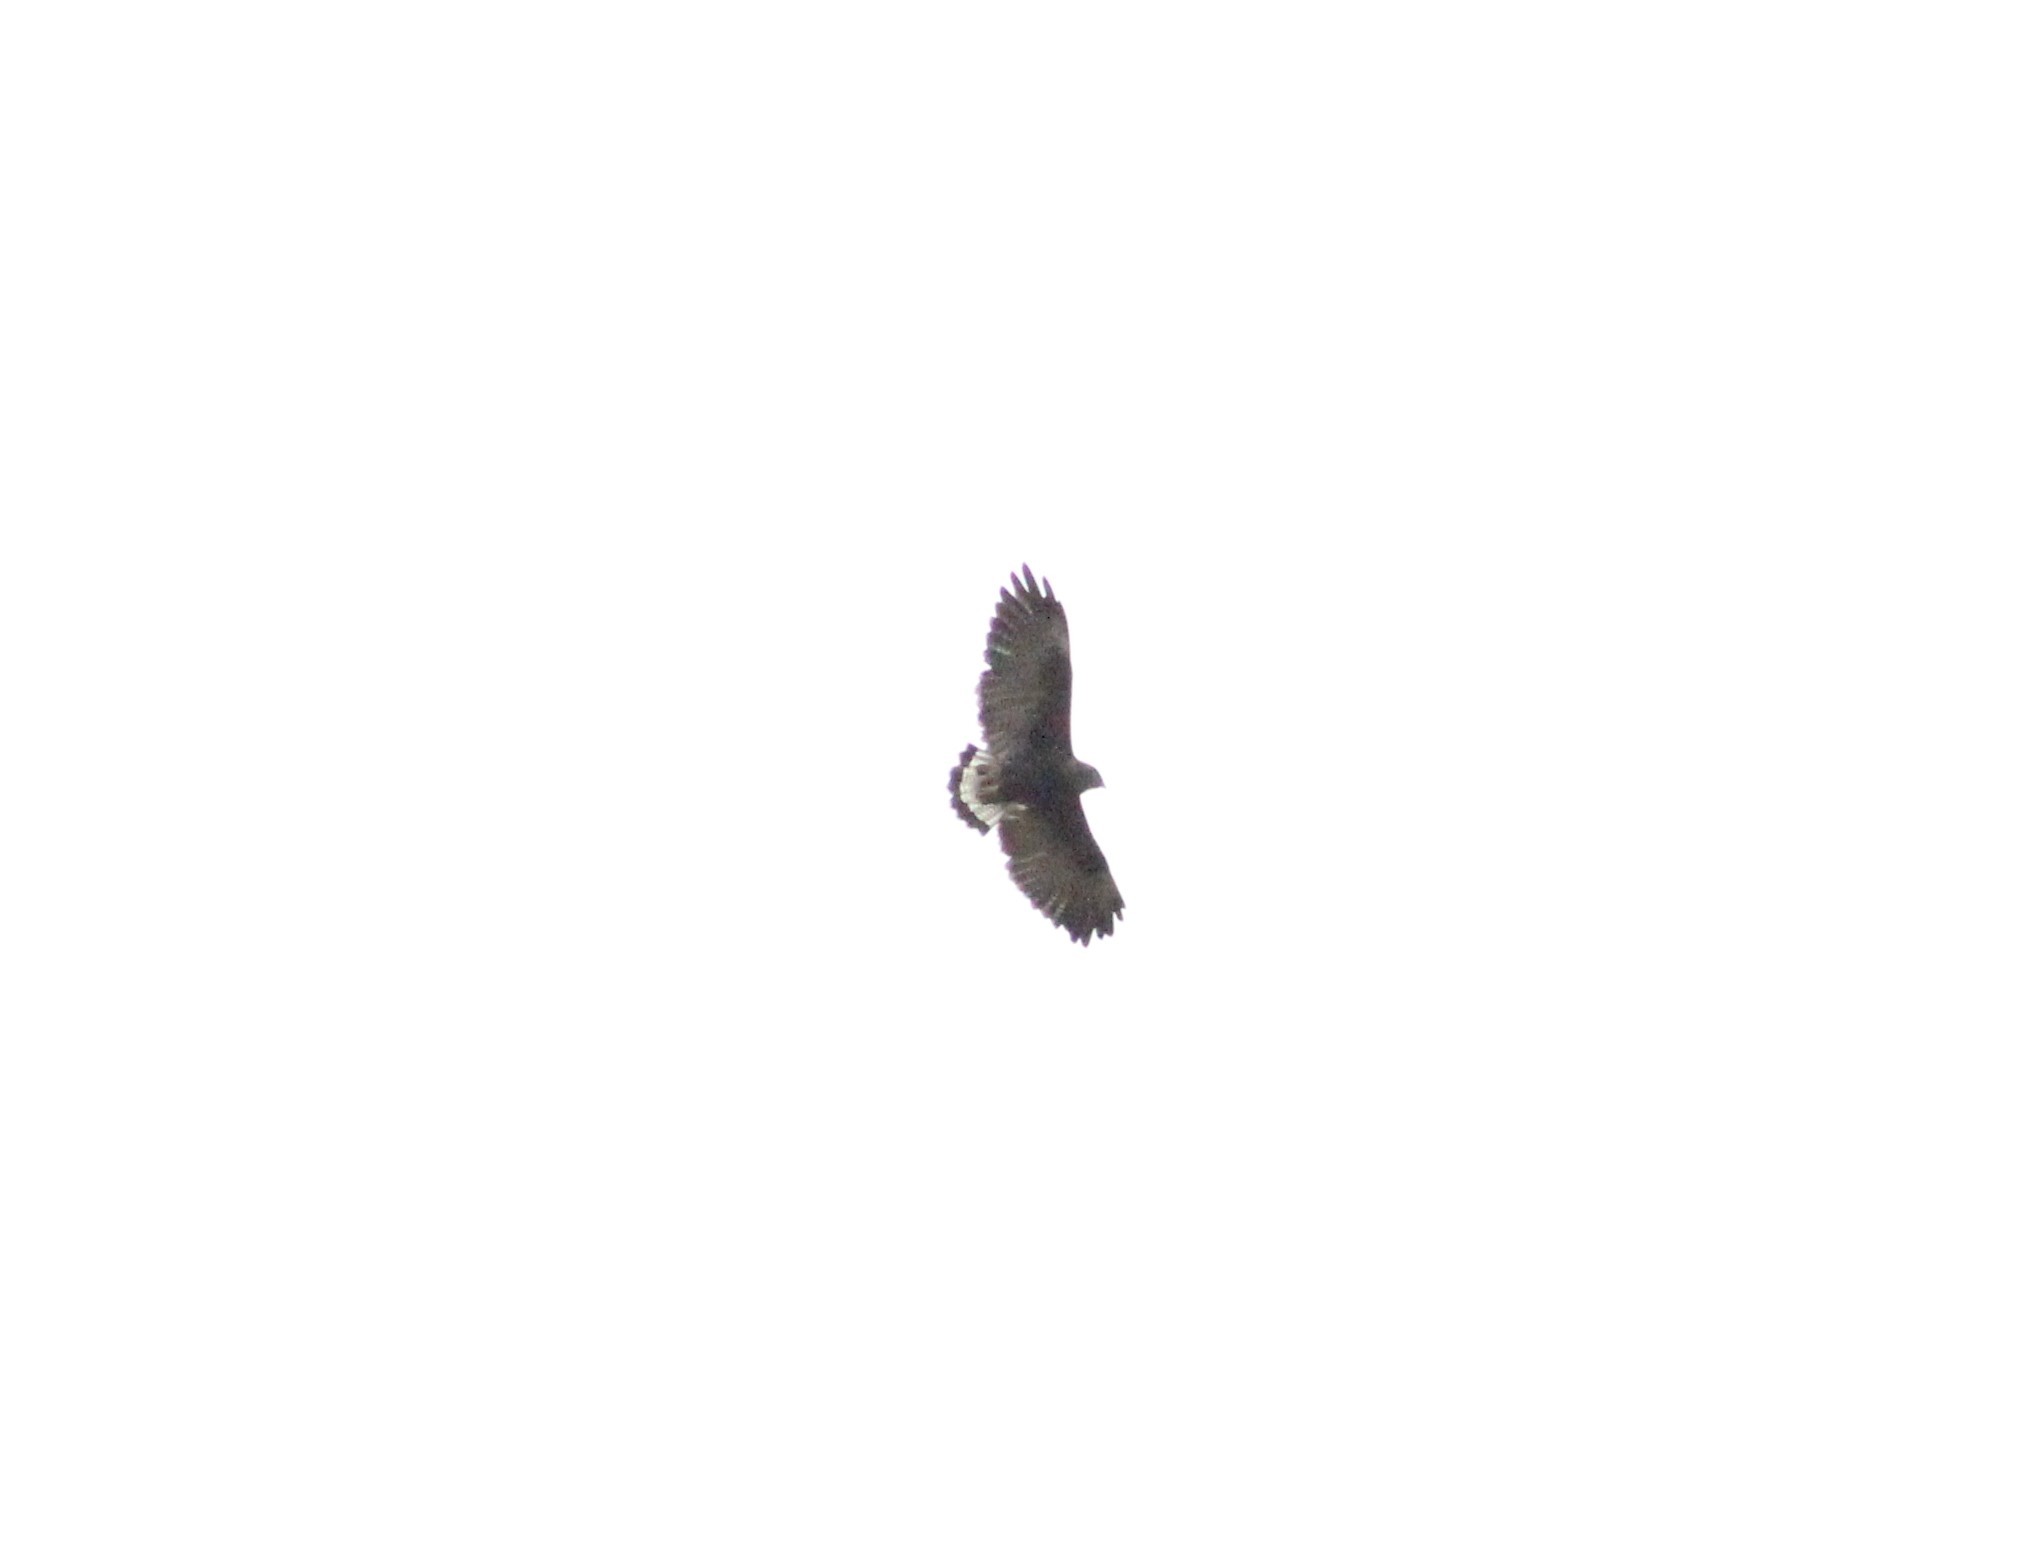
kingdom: Animalia
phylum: Chordata
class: Aves
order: Accipitriformes
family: Accipitridae
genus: Buteo
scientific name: Buteo polyosoma
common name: Variable hawk
